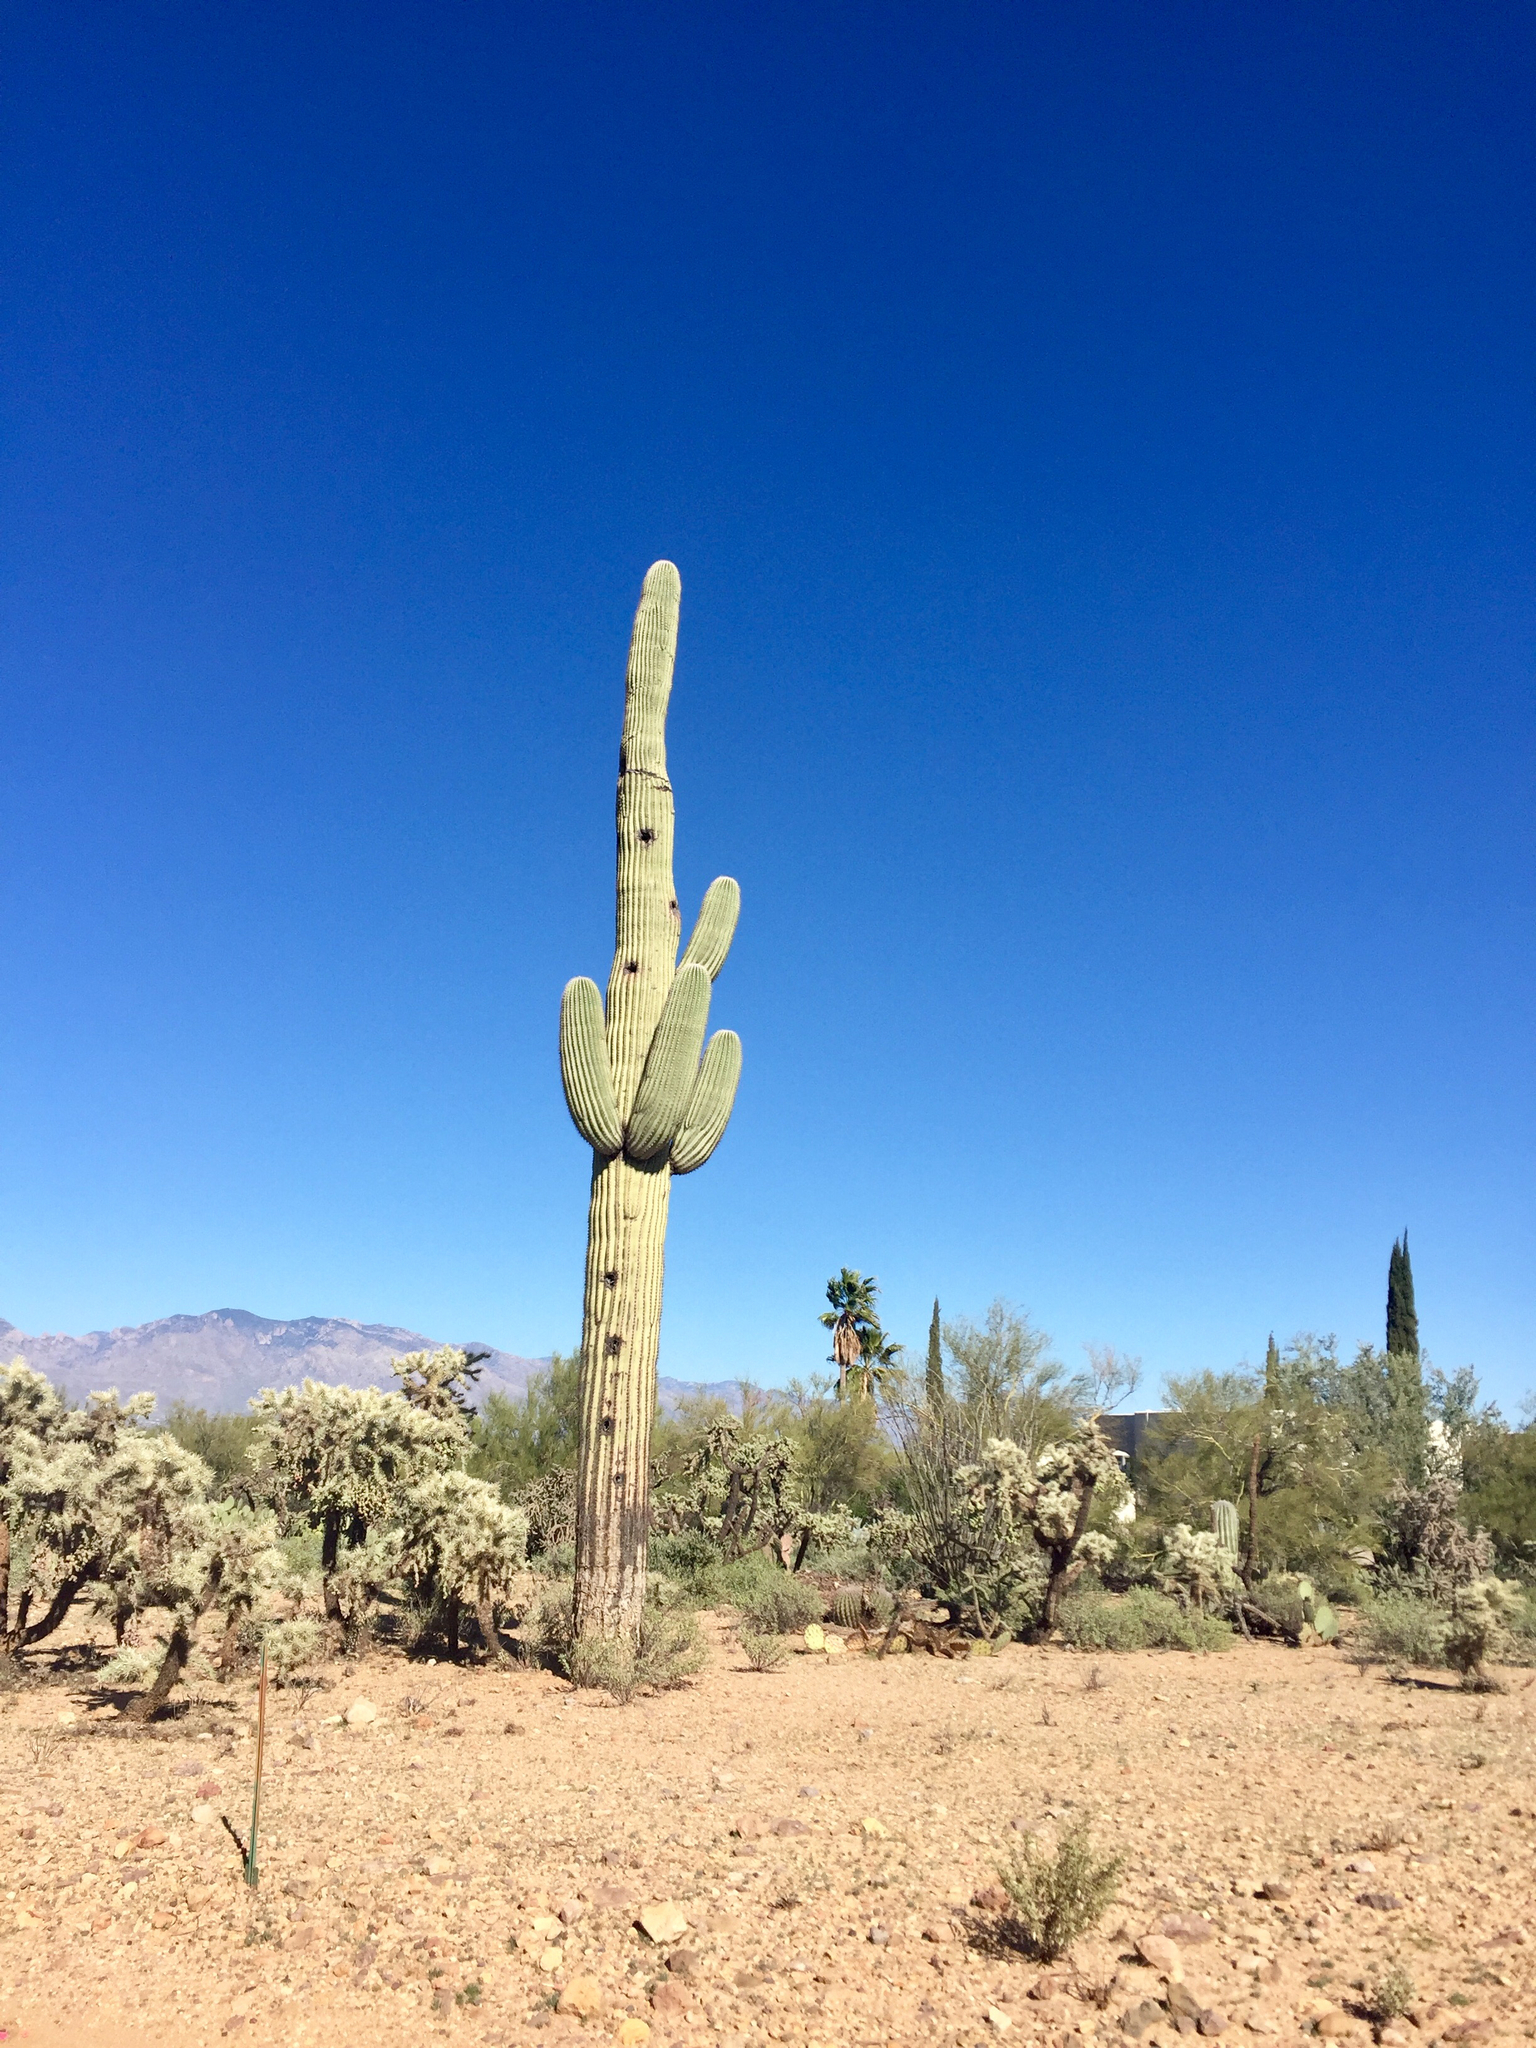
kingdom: Plantae
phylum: Tracheophyta
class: Magnoliopsida
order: Caryophyllales
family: Cactaceae
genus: Carnegiea
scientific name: Carnegiea gigantea
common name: Saguaro
